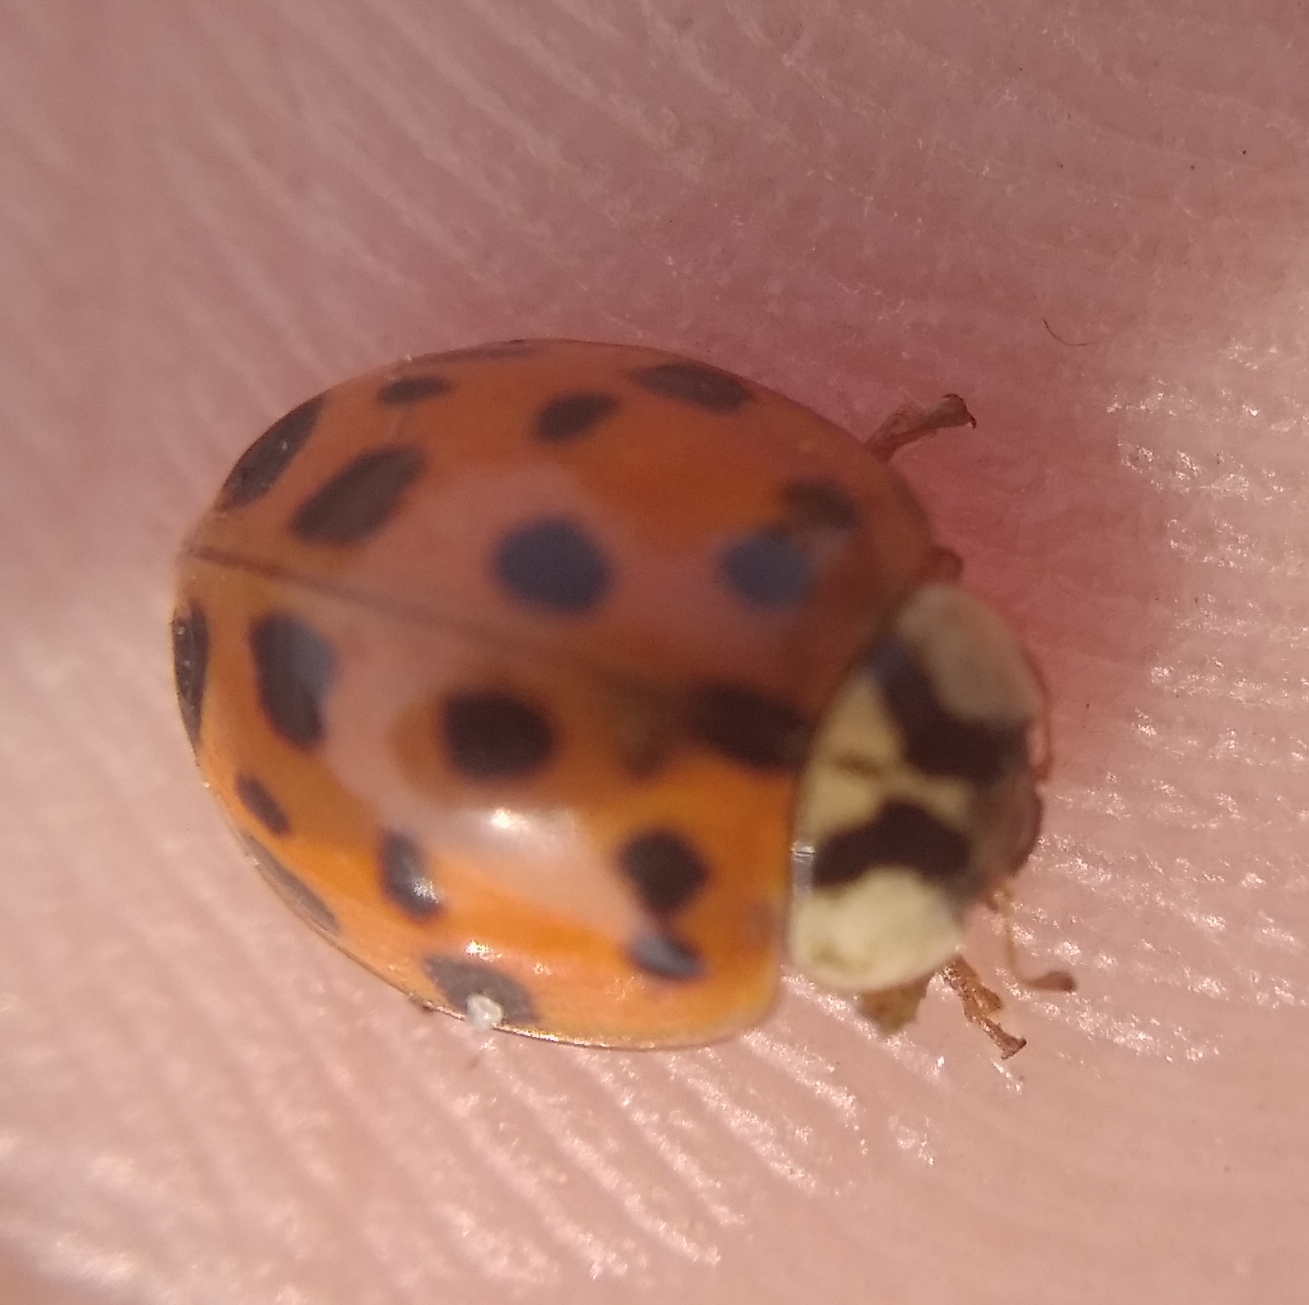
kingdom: Animalia
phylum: Arthropoda
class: Insecta
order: Coleoptera
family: Coccinellidae
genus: Harmonia
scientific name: Harmonia axyridis
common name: Harlequin ladybird
